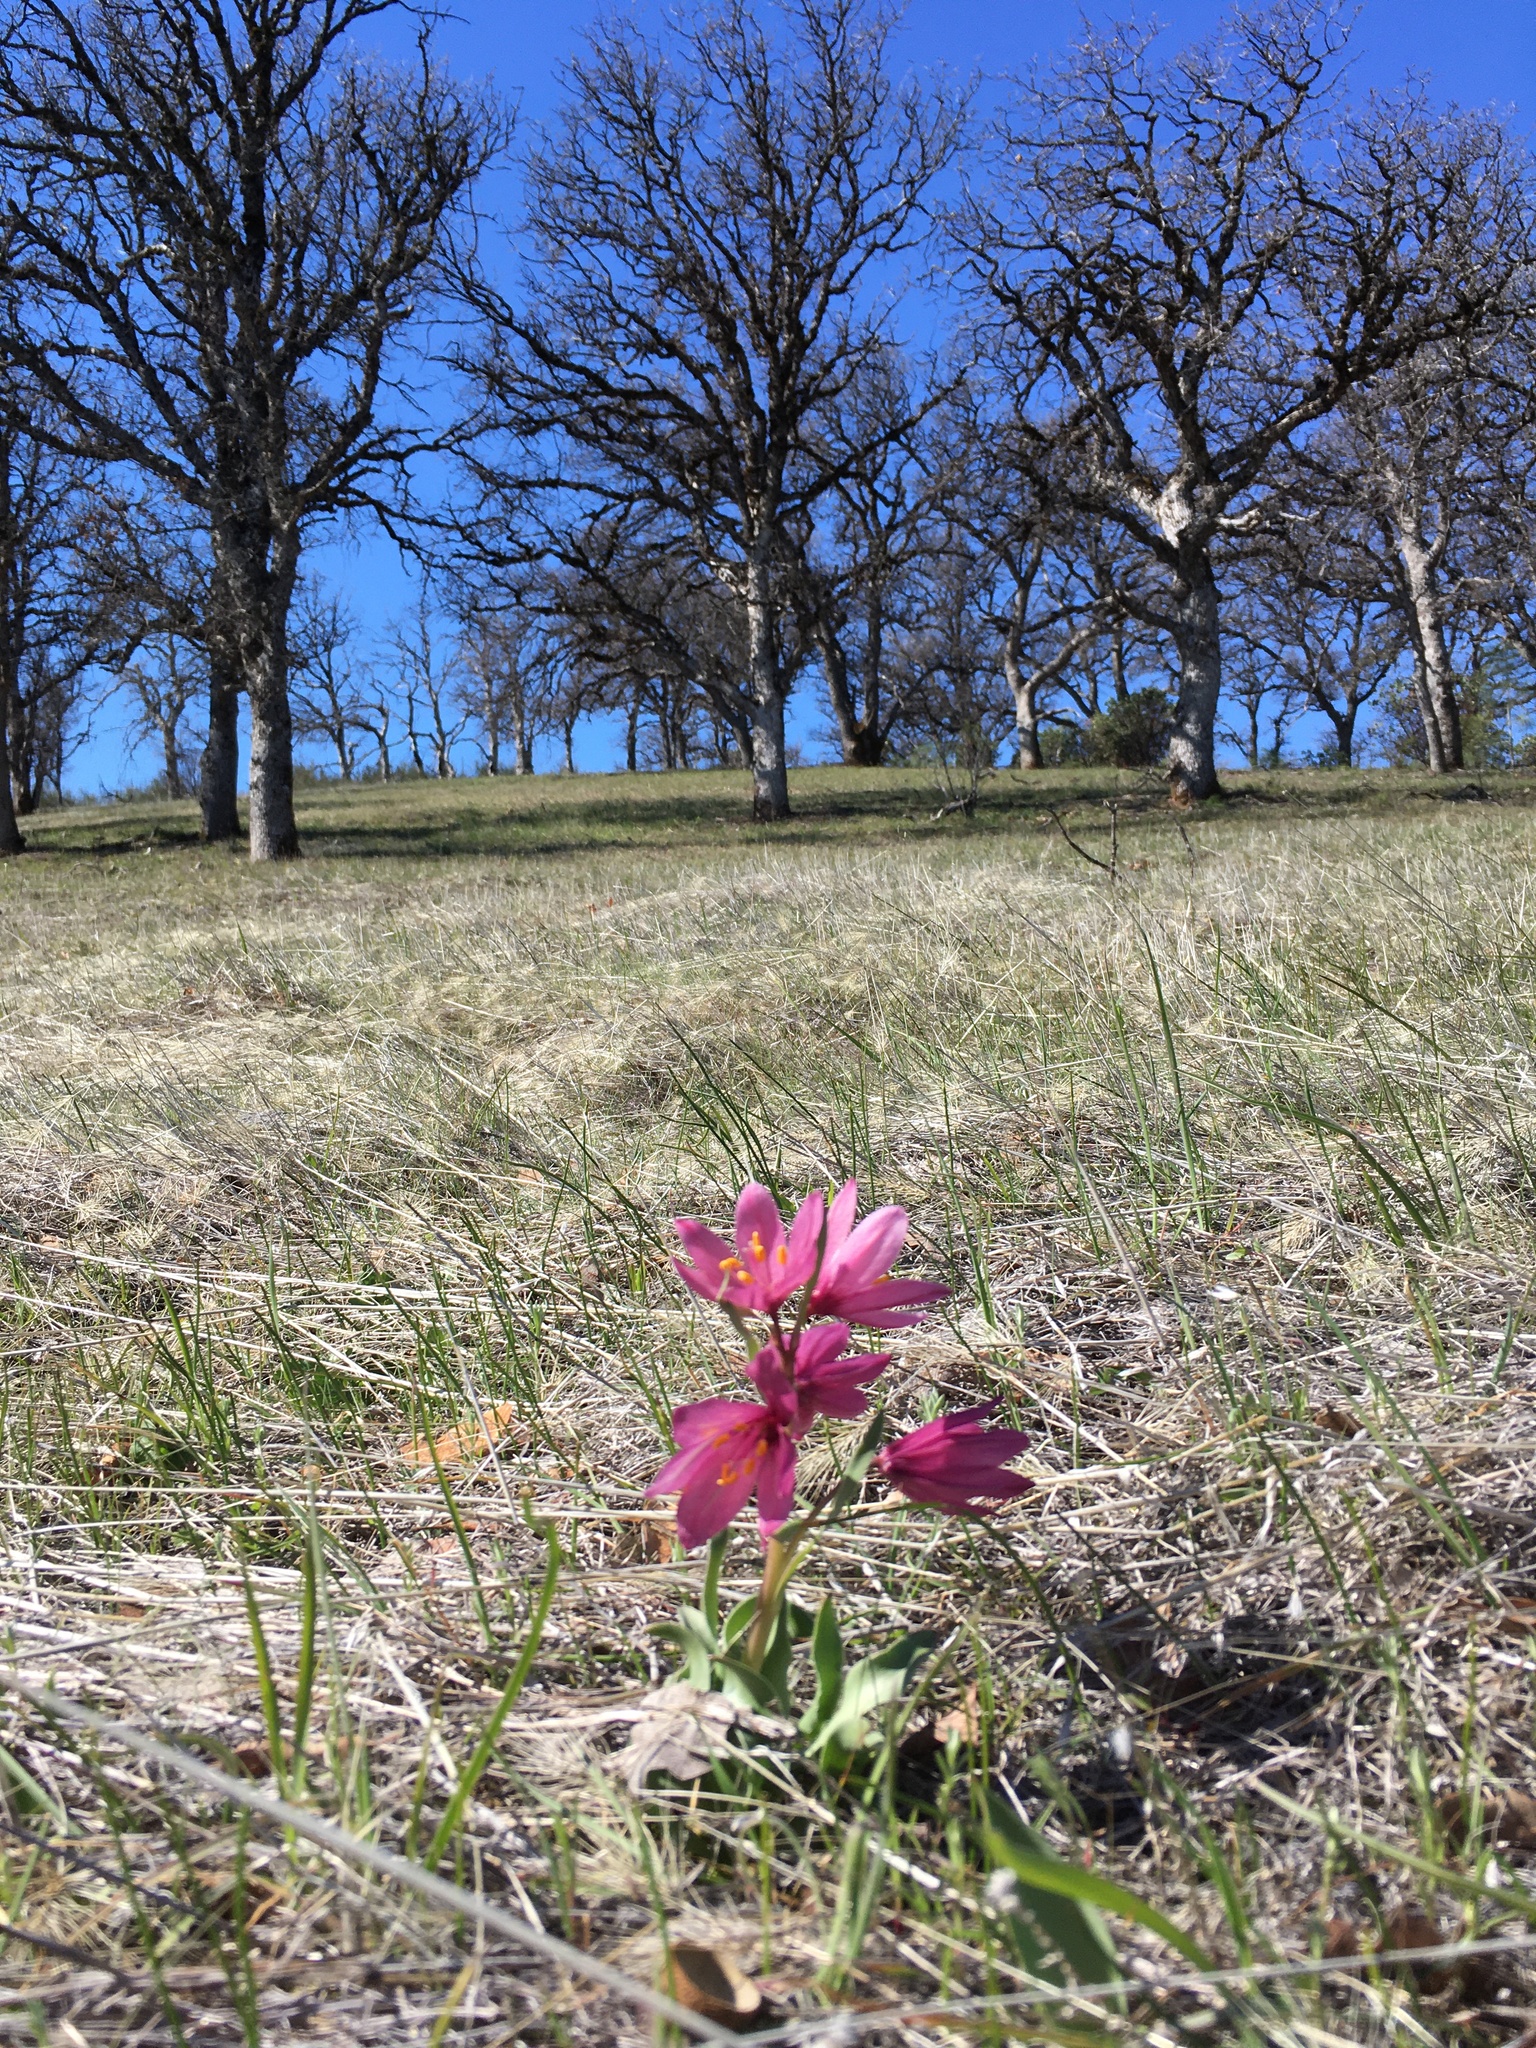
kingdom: Plantae
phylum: Tracheophyta
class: Liliopsida
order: Liliales
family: Liliaceae
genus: Fritillaria
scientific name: Fritillaria pluriflora
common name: Adobe-lily
